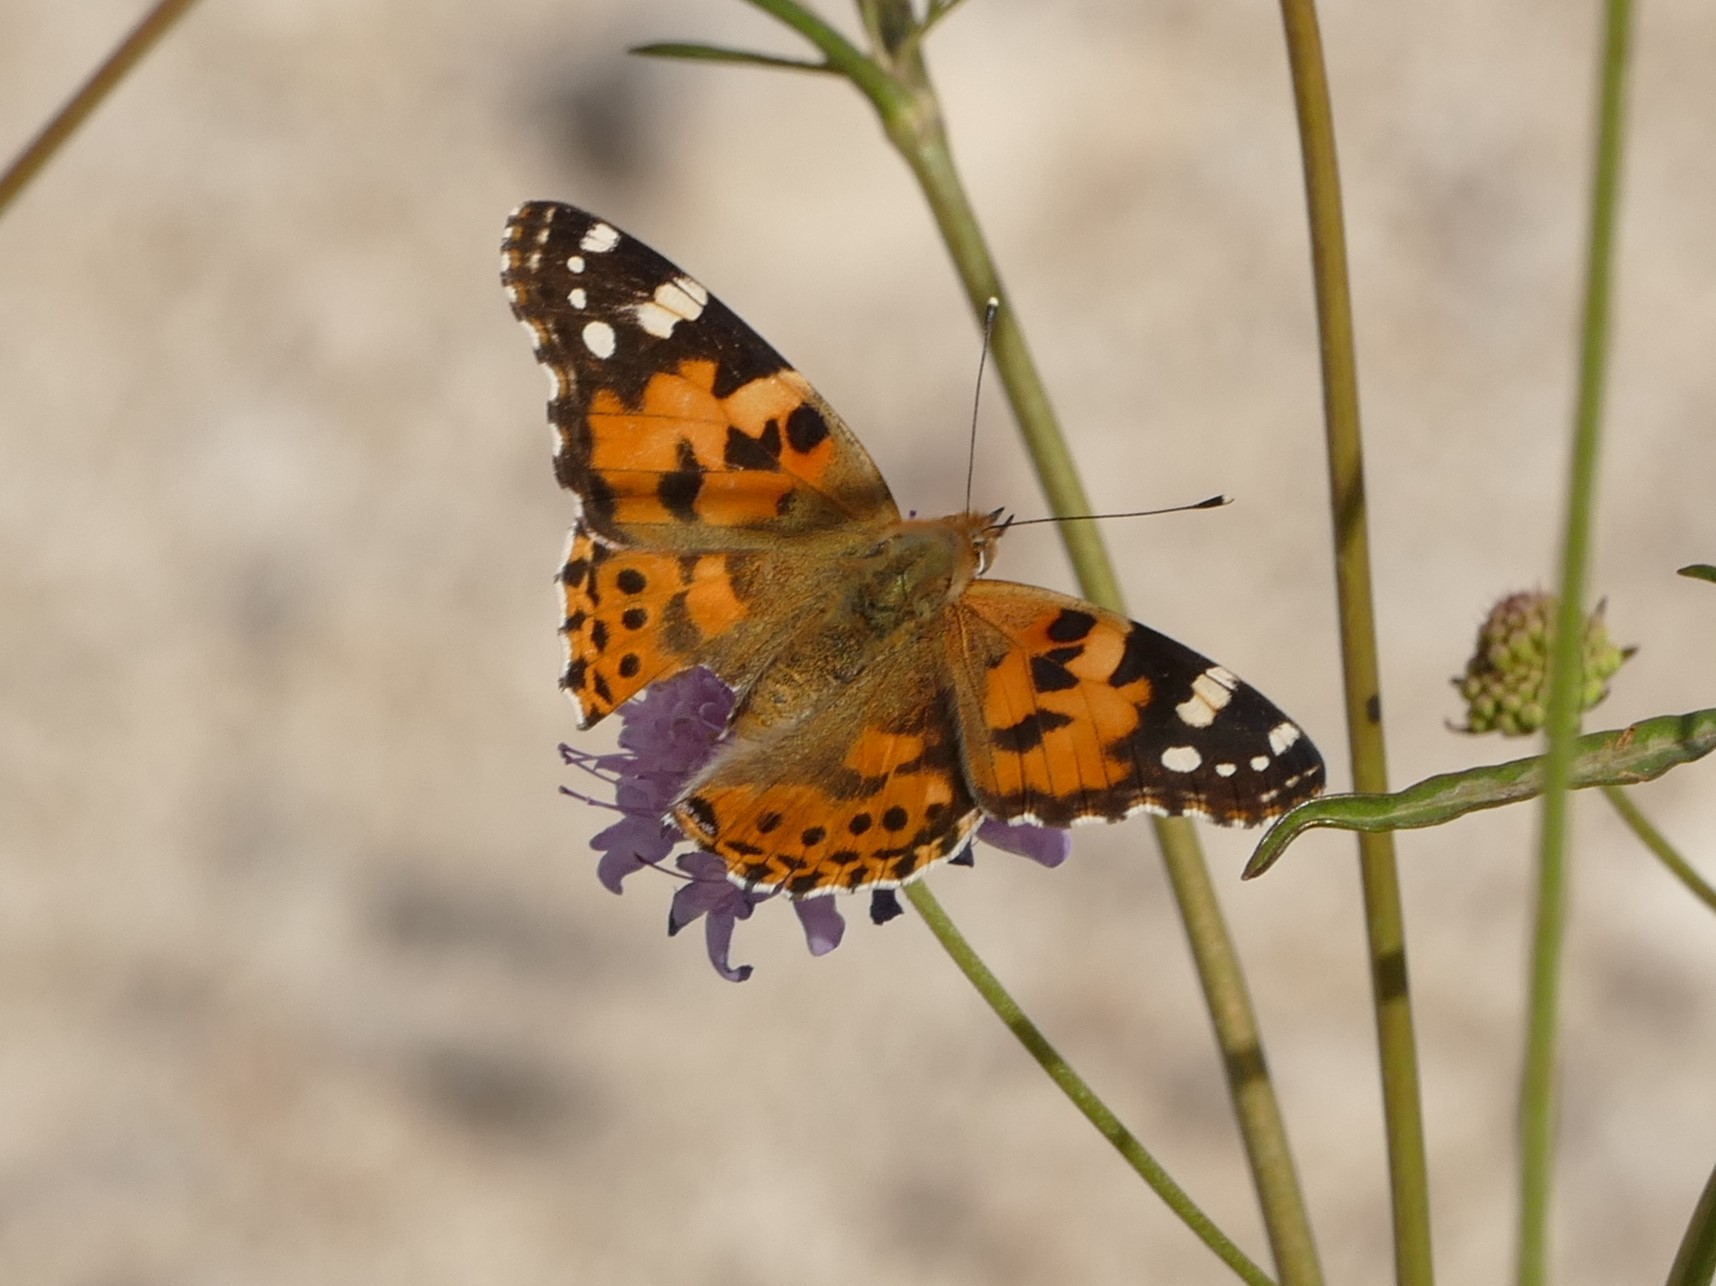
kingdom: Animalia
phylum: Arthropoda
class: Insecta
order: Lepidoptera
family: Nymphalidae
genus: Vanessa
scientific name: Vanessa cardui
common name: Painted lady
